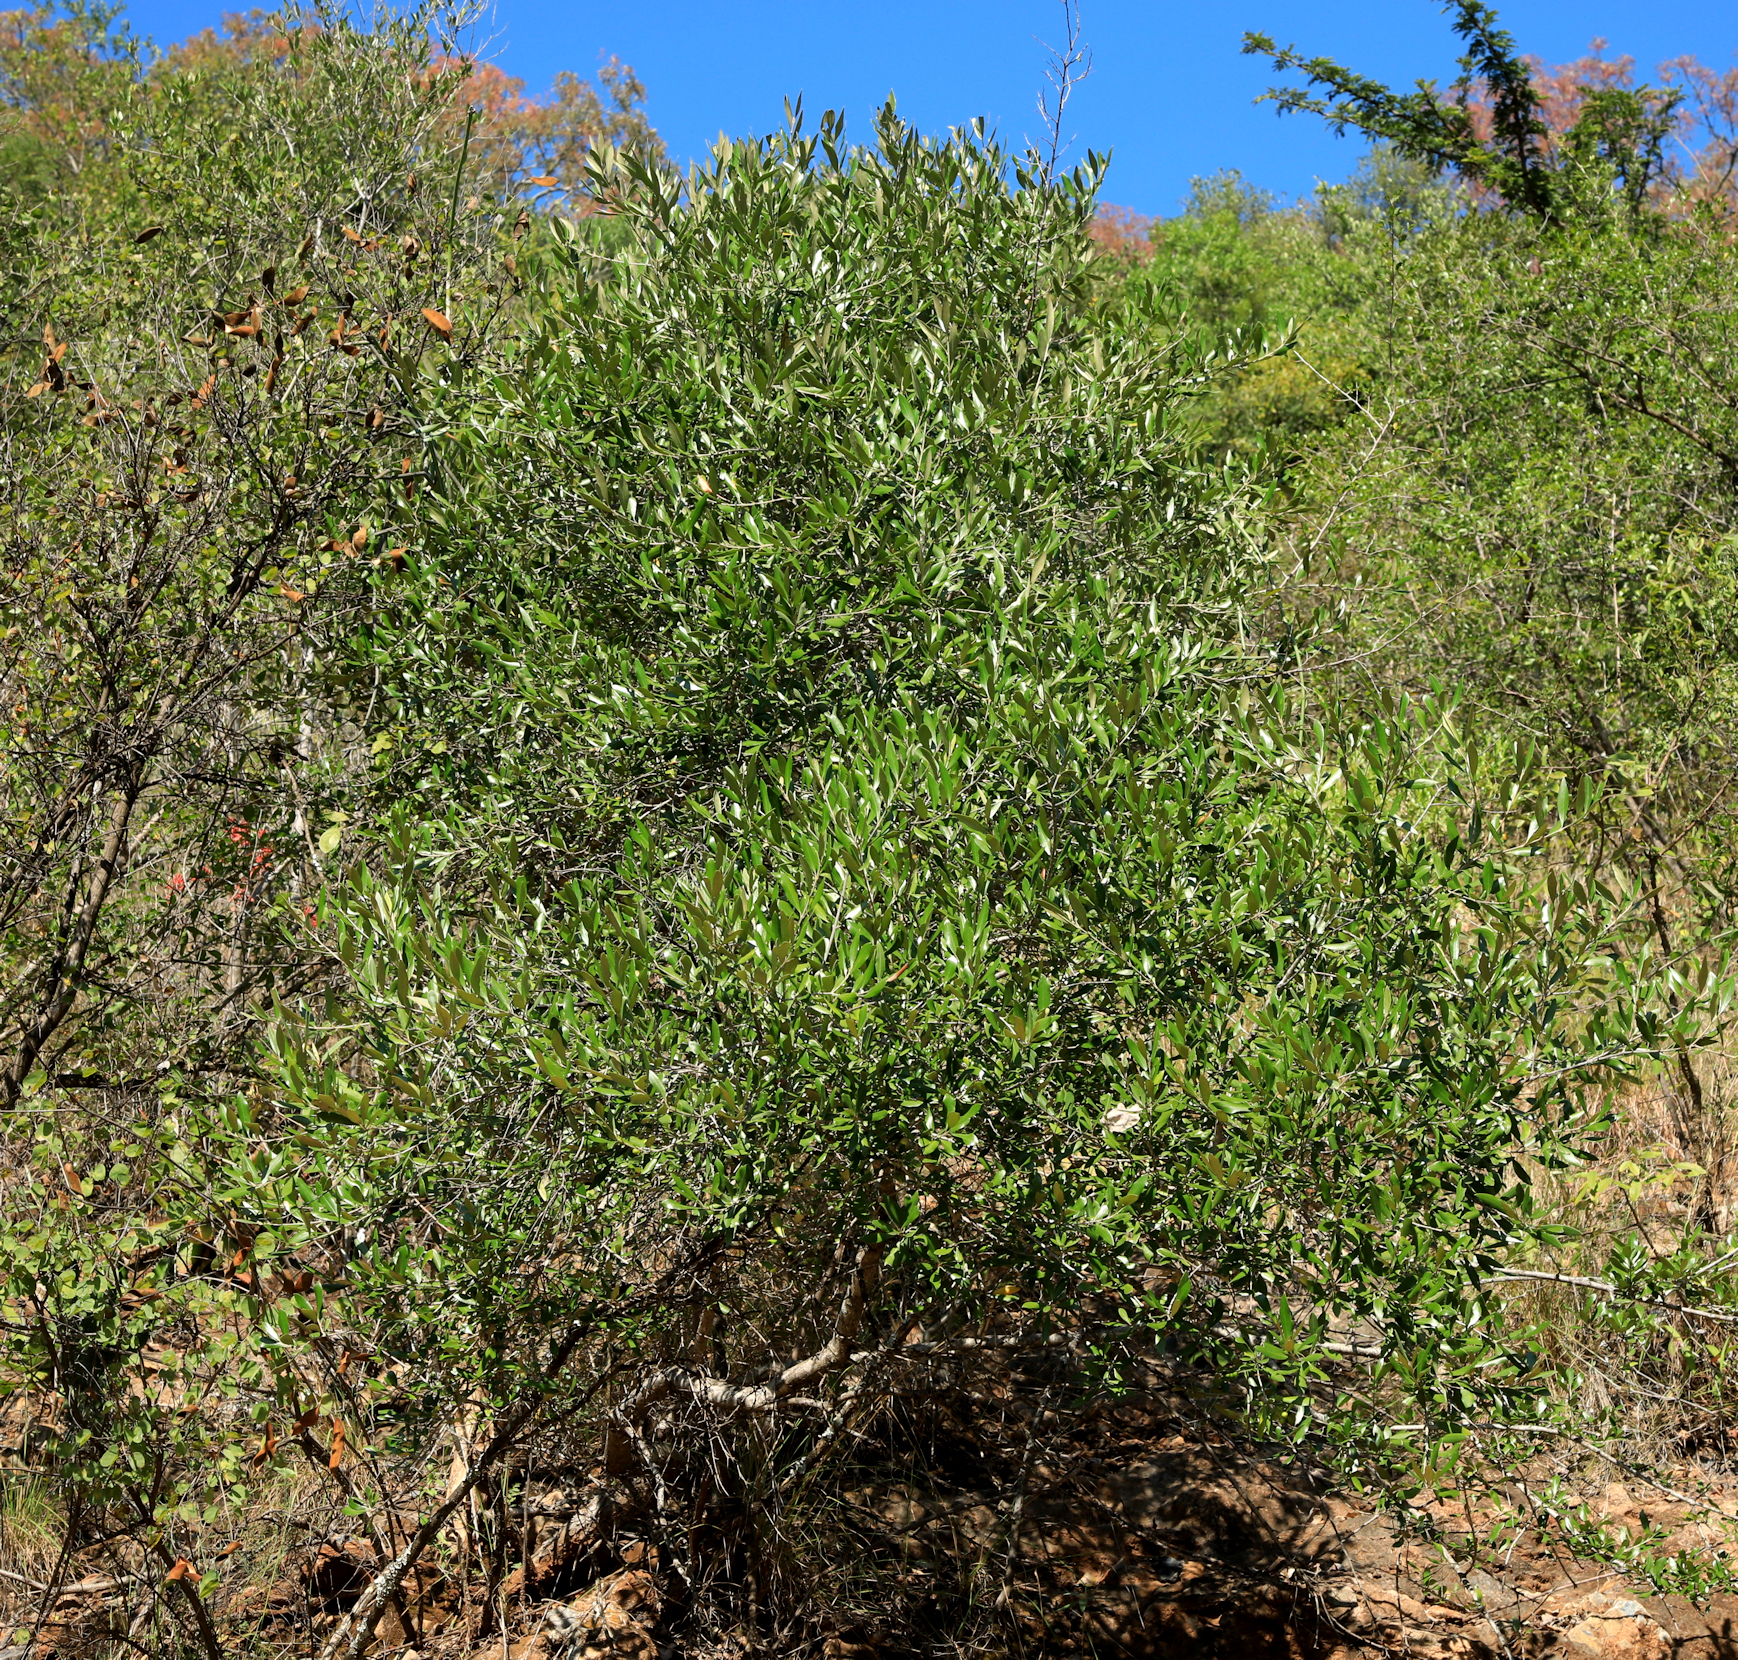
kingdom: Plantae
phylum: Tracheophyta
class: Magnoliopsida
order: Lamiales
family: Oleaceae
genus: Olea
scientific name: Olea europaea
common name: Olive
